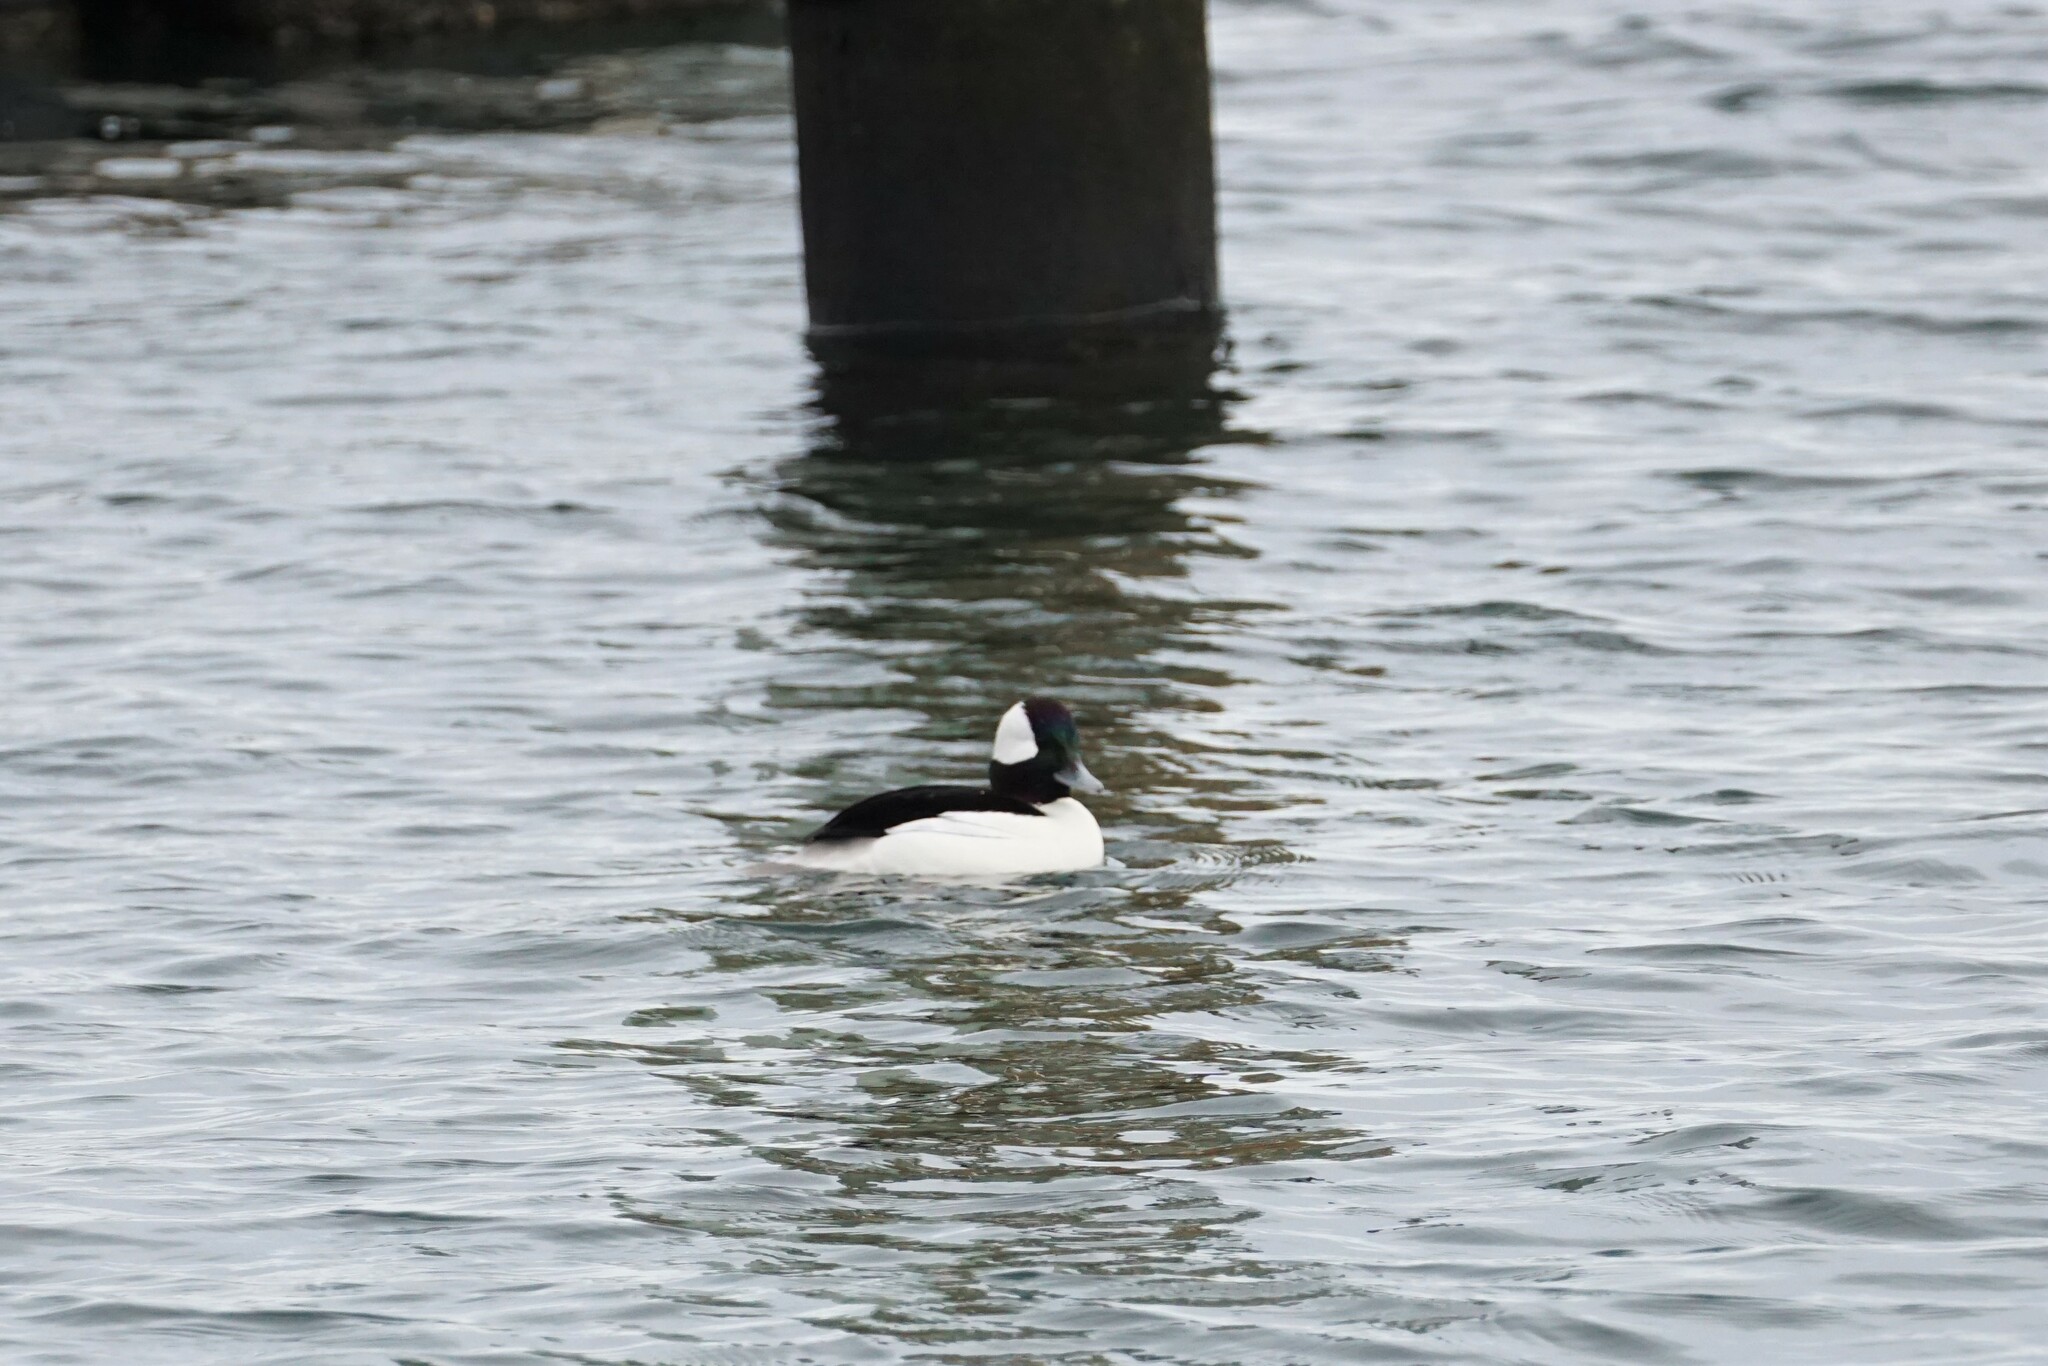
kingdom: Animalia
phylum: Chordata
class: Aves
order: Anseriformes
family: Anatidae
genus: Bucephala
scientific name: Bucephala albeola
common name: Bufflehead
